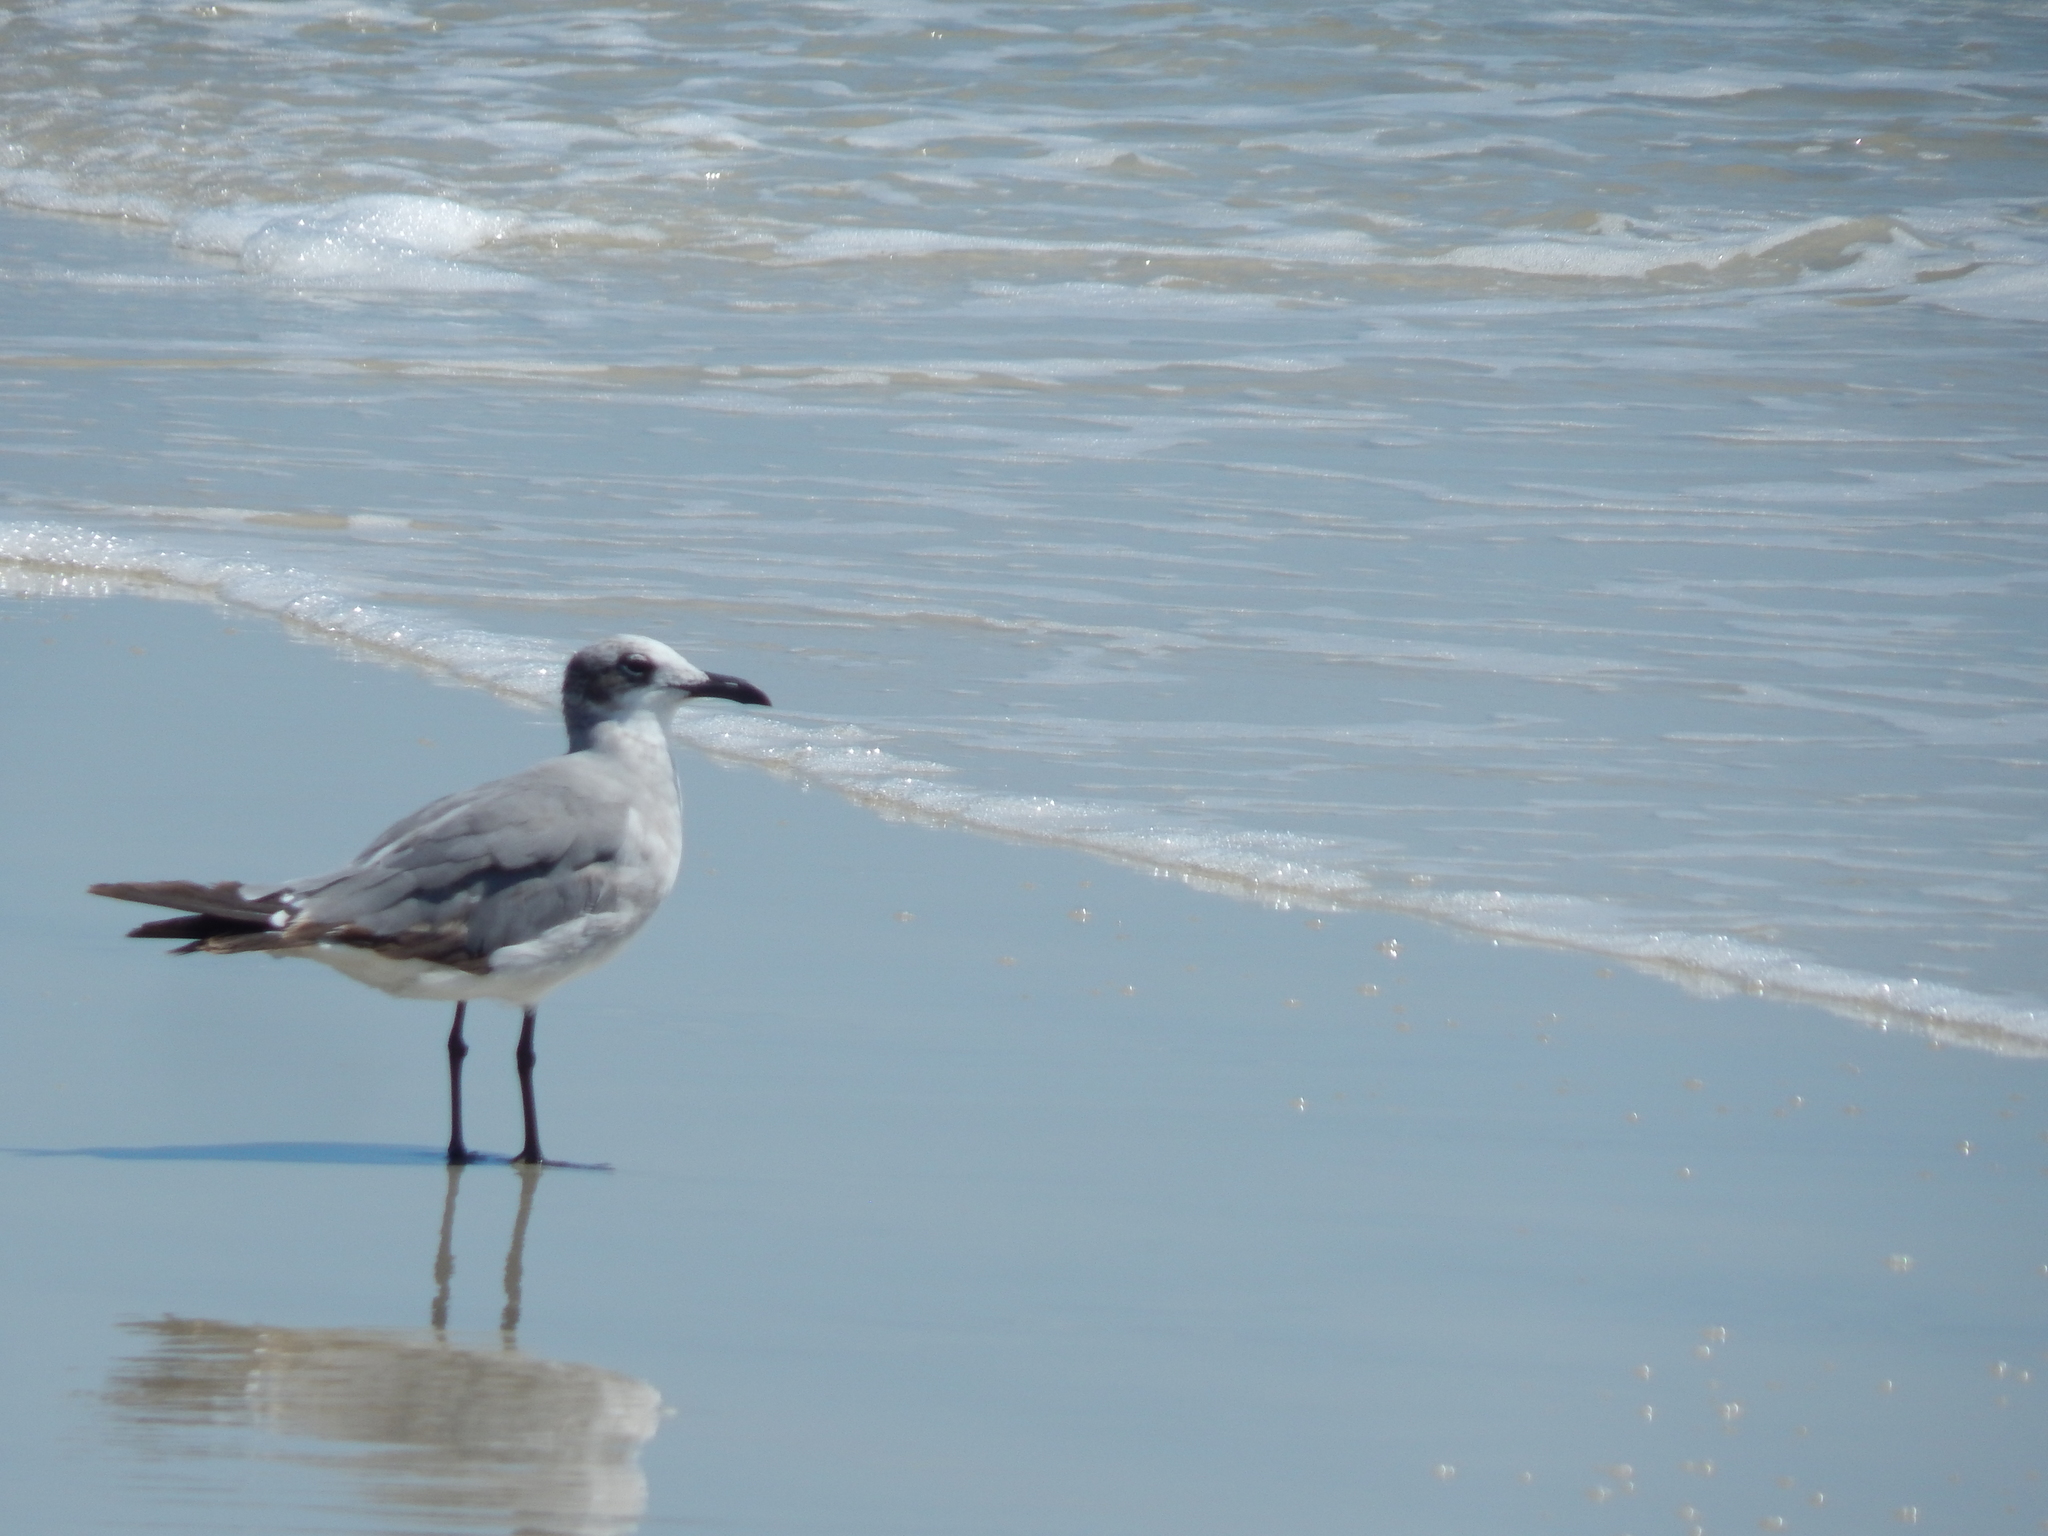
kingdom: Animalia
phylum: Chordata
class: Aves
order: Charadriiformes
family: Laridae
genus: Leucophaeus
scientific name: Leucophaeus atricilla
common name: Laughing gull
